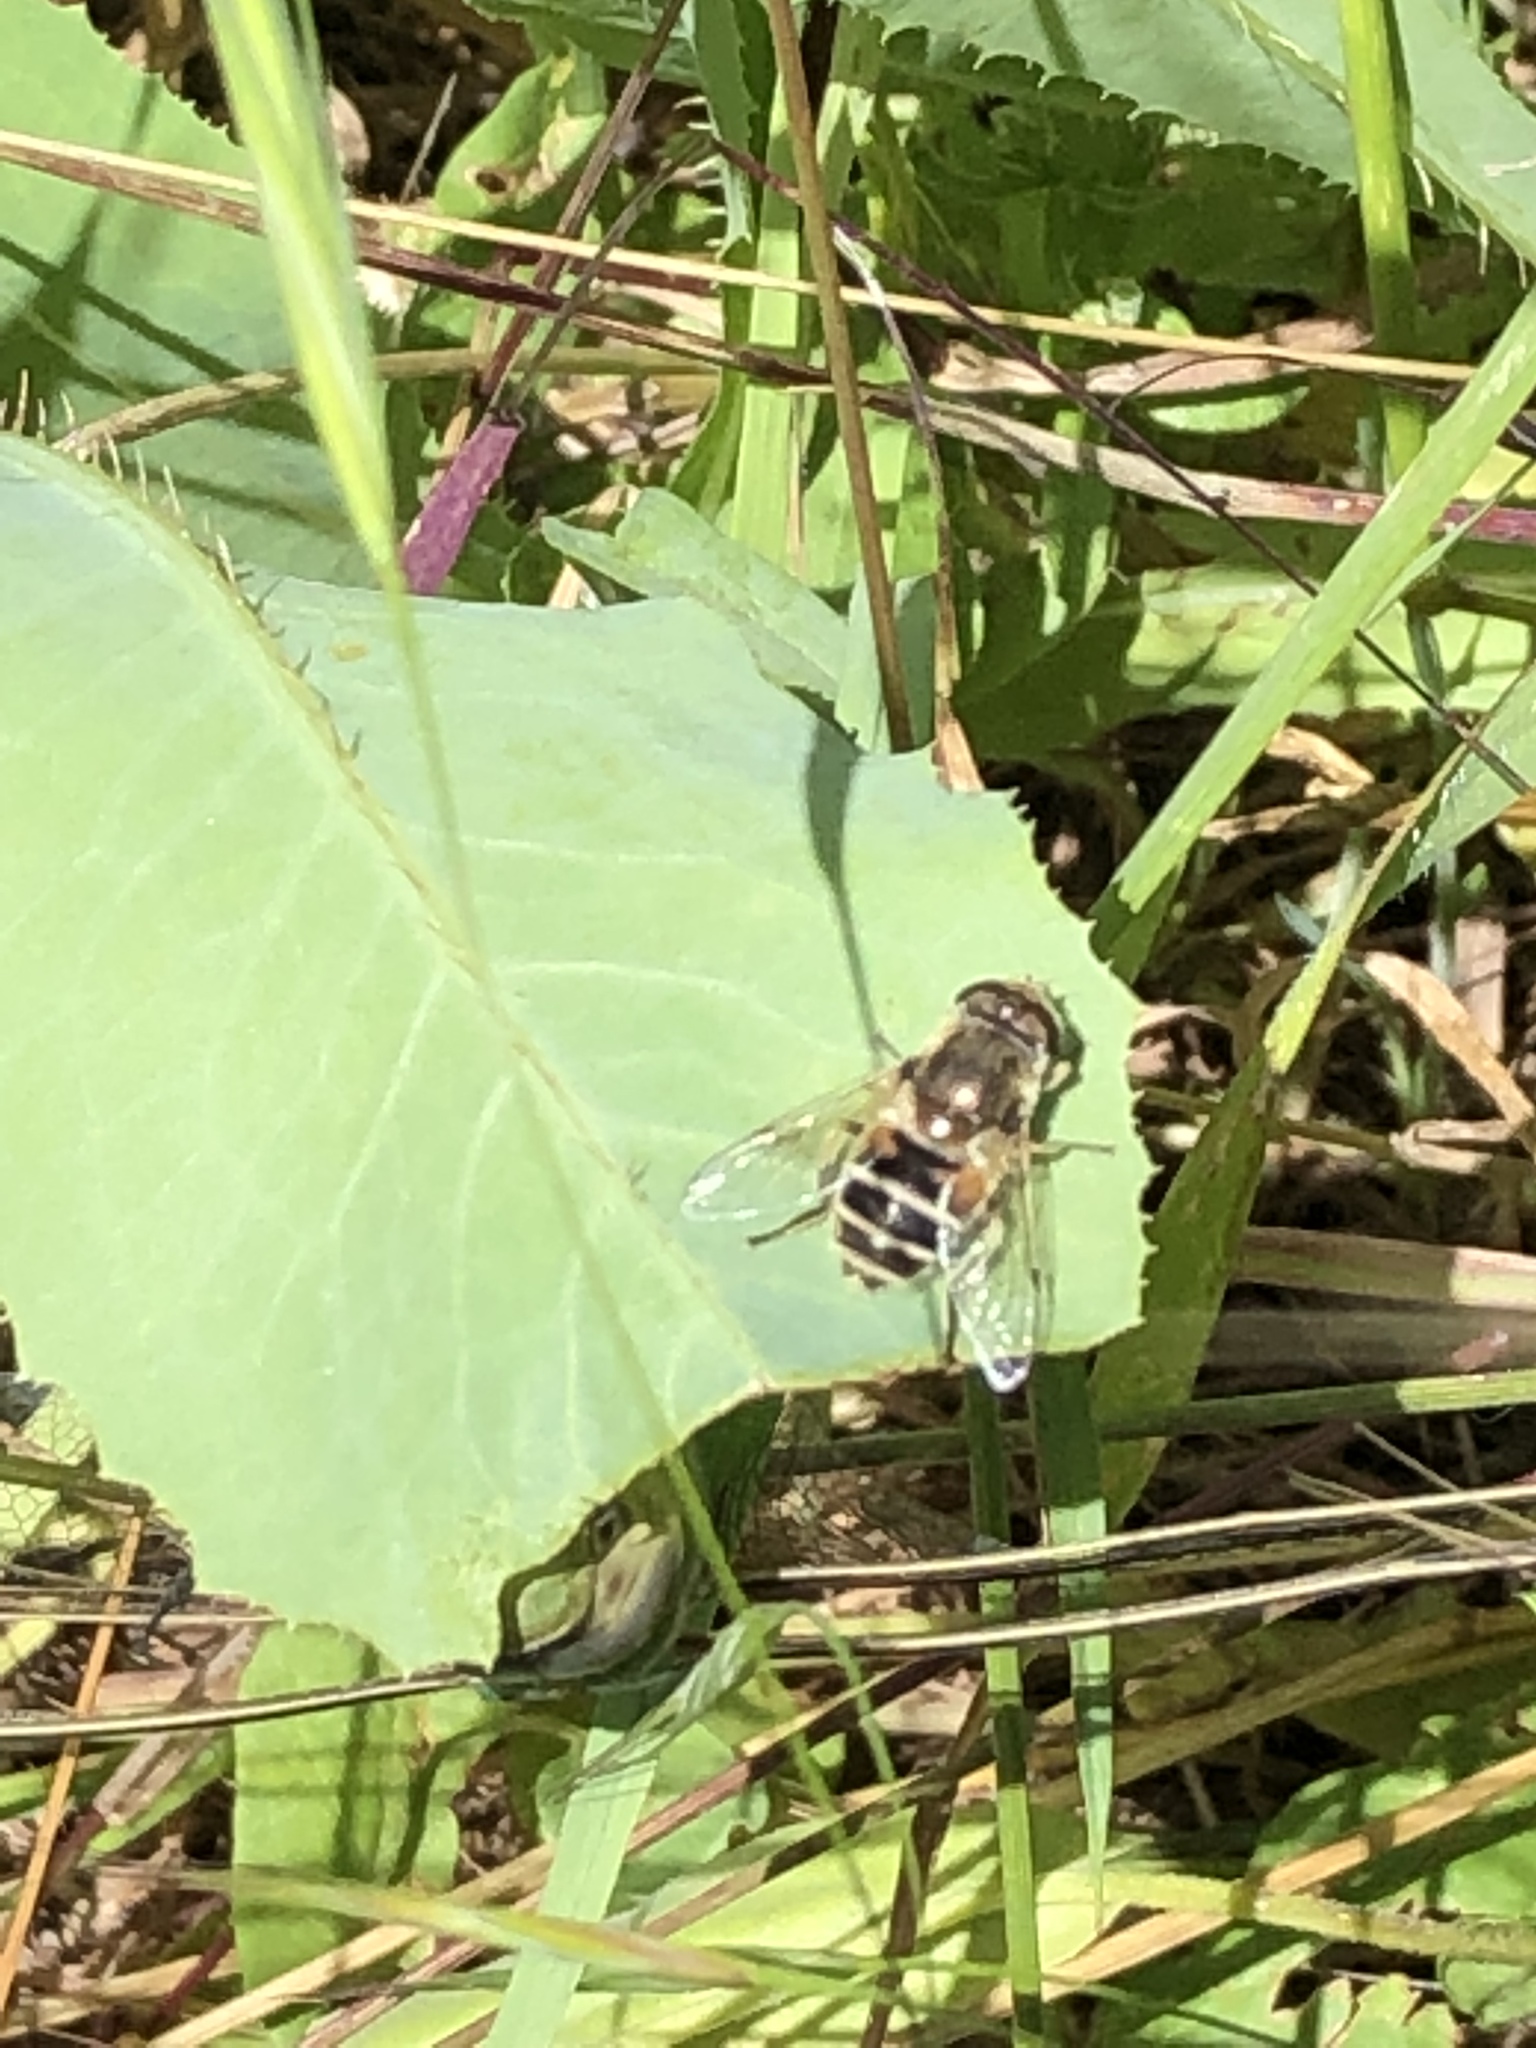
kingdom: Animalia
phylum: Arthropoda
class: Insecta
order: Diptera
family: Syrphidae
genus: Eristalis
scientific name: Eristalis arbustorum
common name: Hover fly
